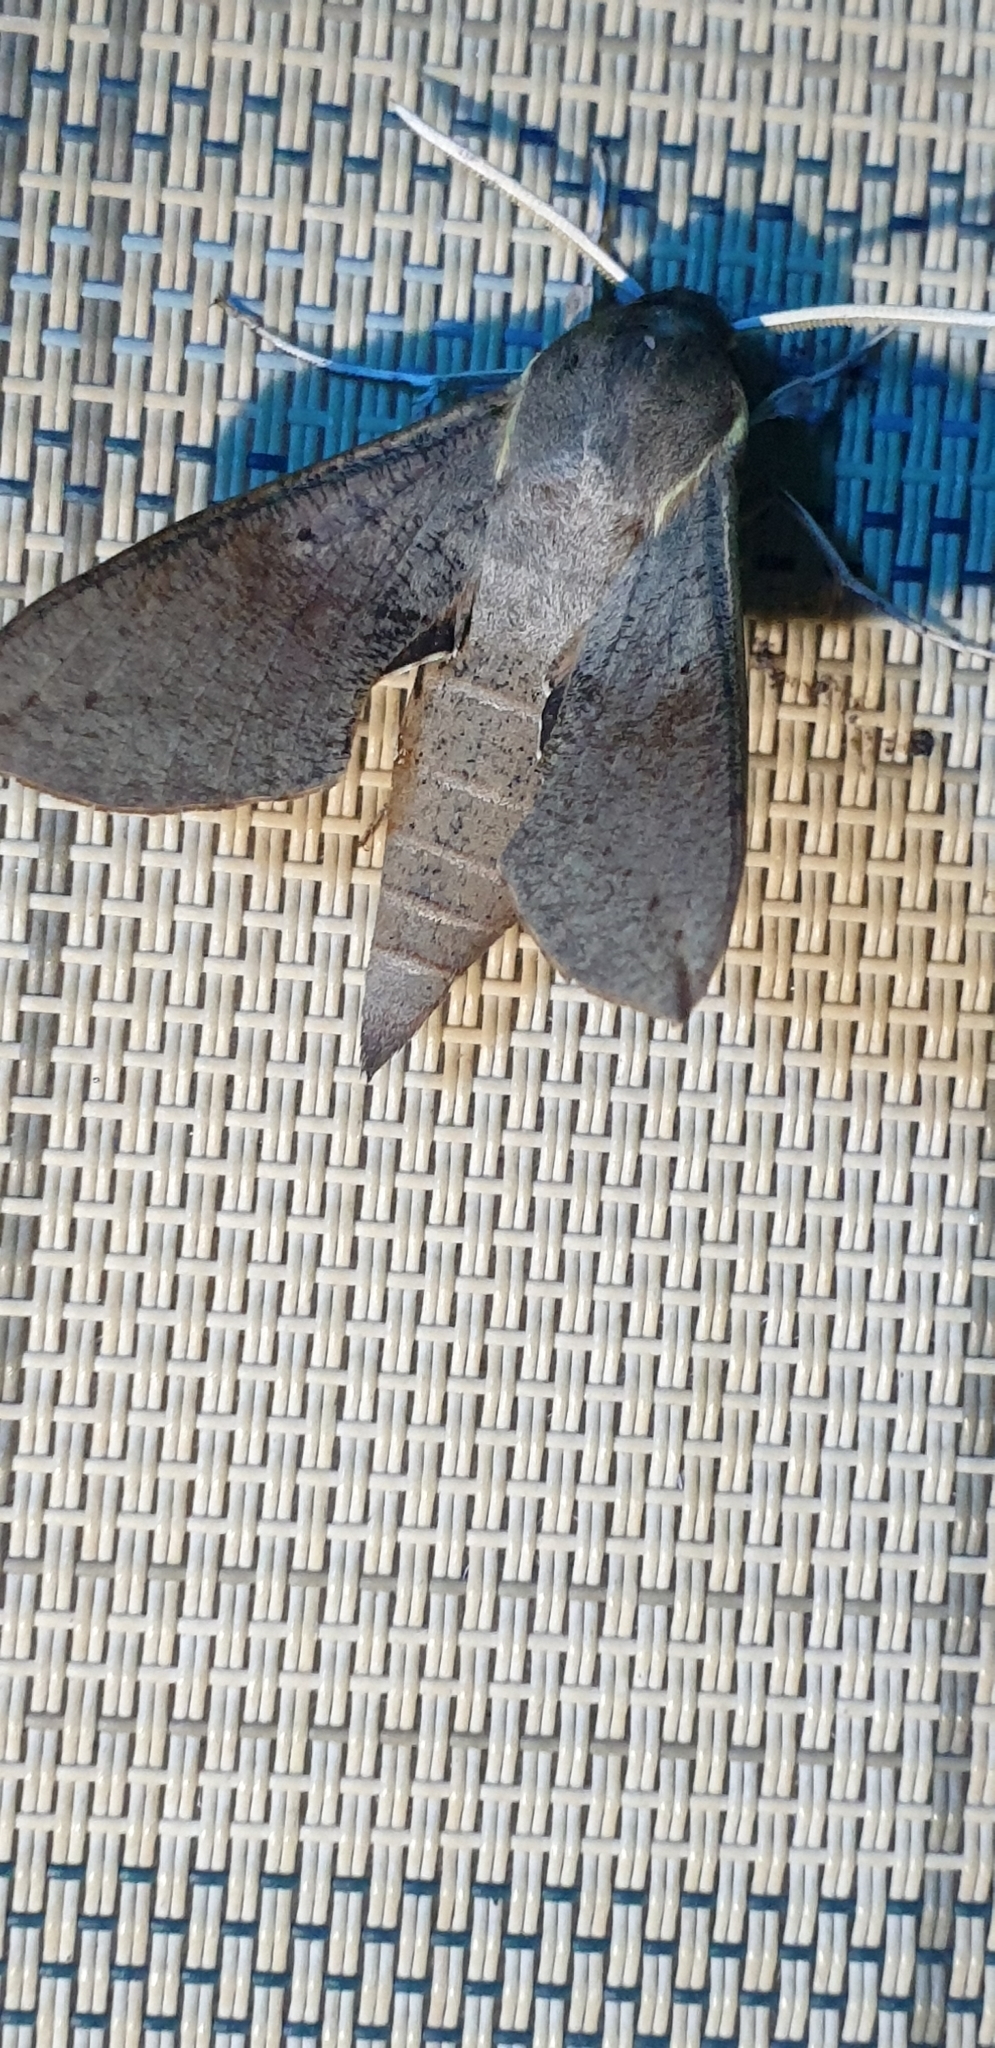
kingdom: Animalia
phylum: Arthropoda
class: Insecta
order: Lepidoptera
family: Sphingidae
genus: Hippotion
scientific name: Hippotion scrofa
